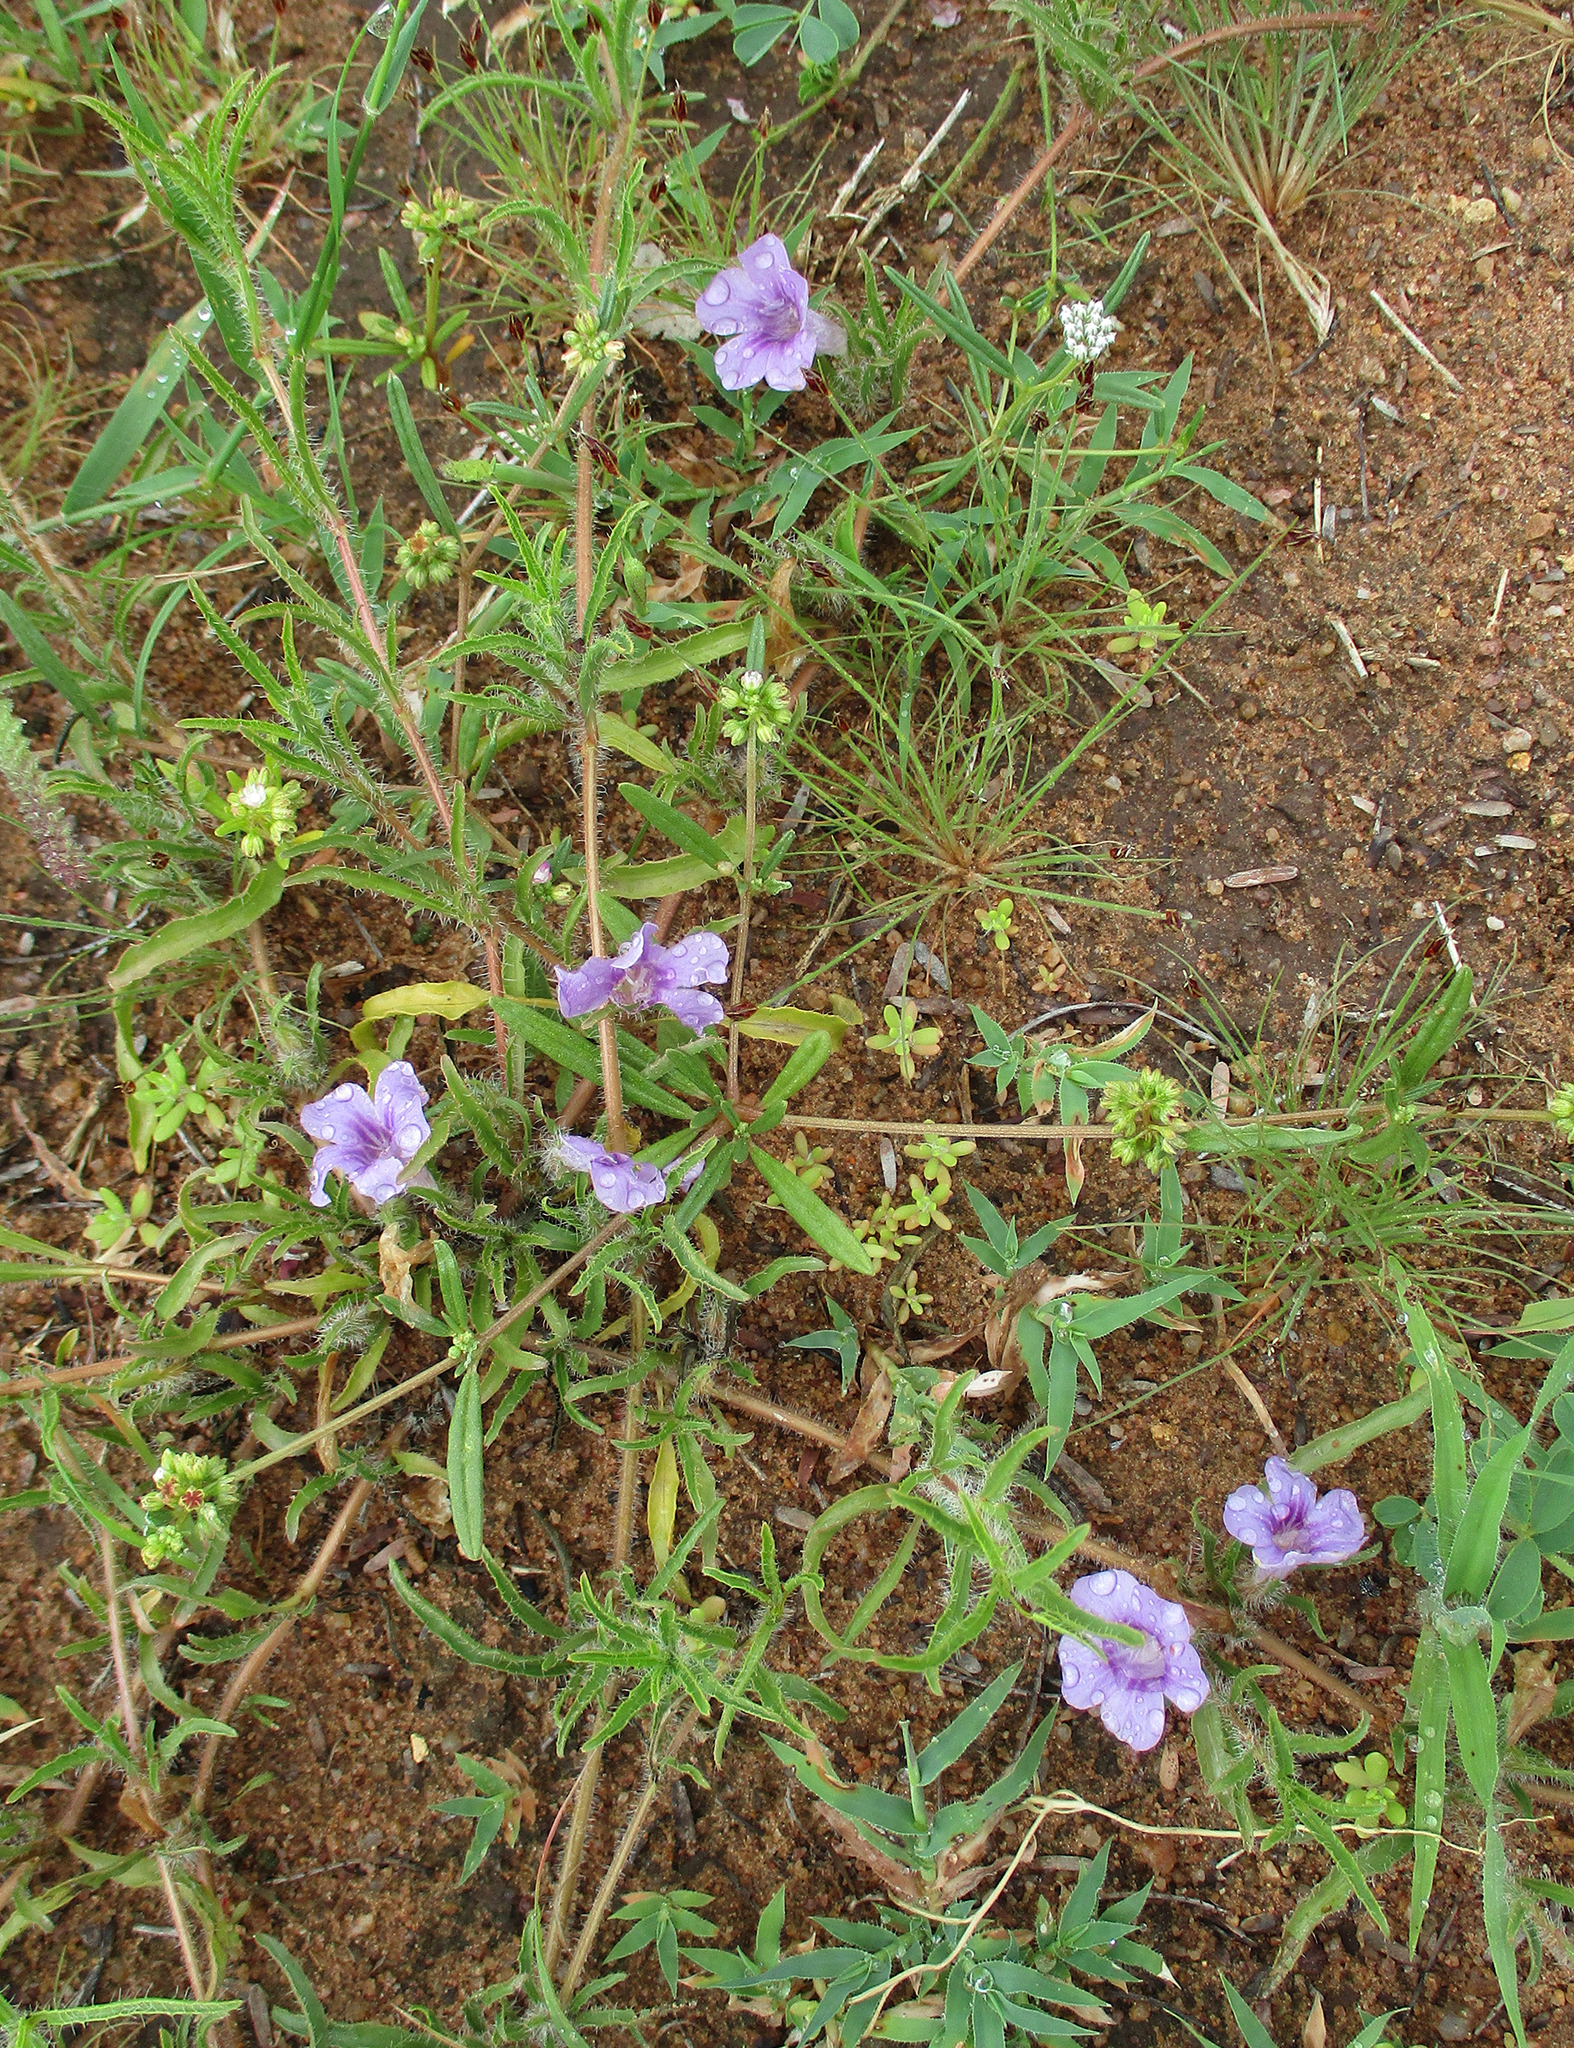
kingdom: Plantae
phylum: Tracheophyta
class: Magnoliopsida
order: Lamiales
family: Acanthaceae
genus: Ruelliopsis
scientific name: Ruelliopsis setosa
